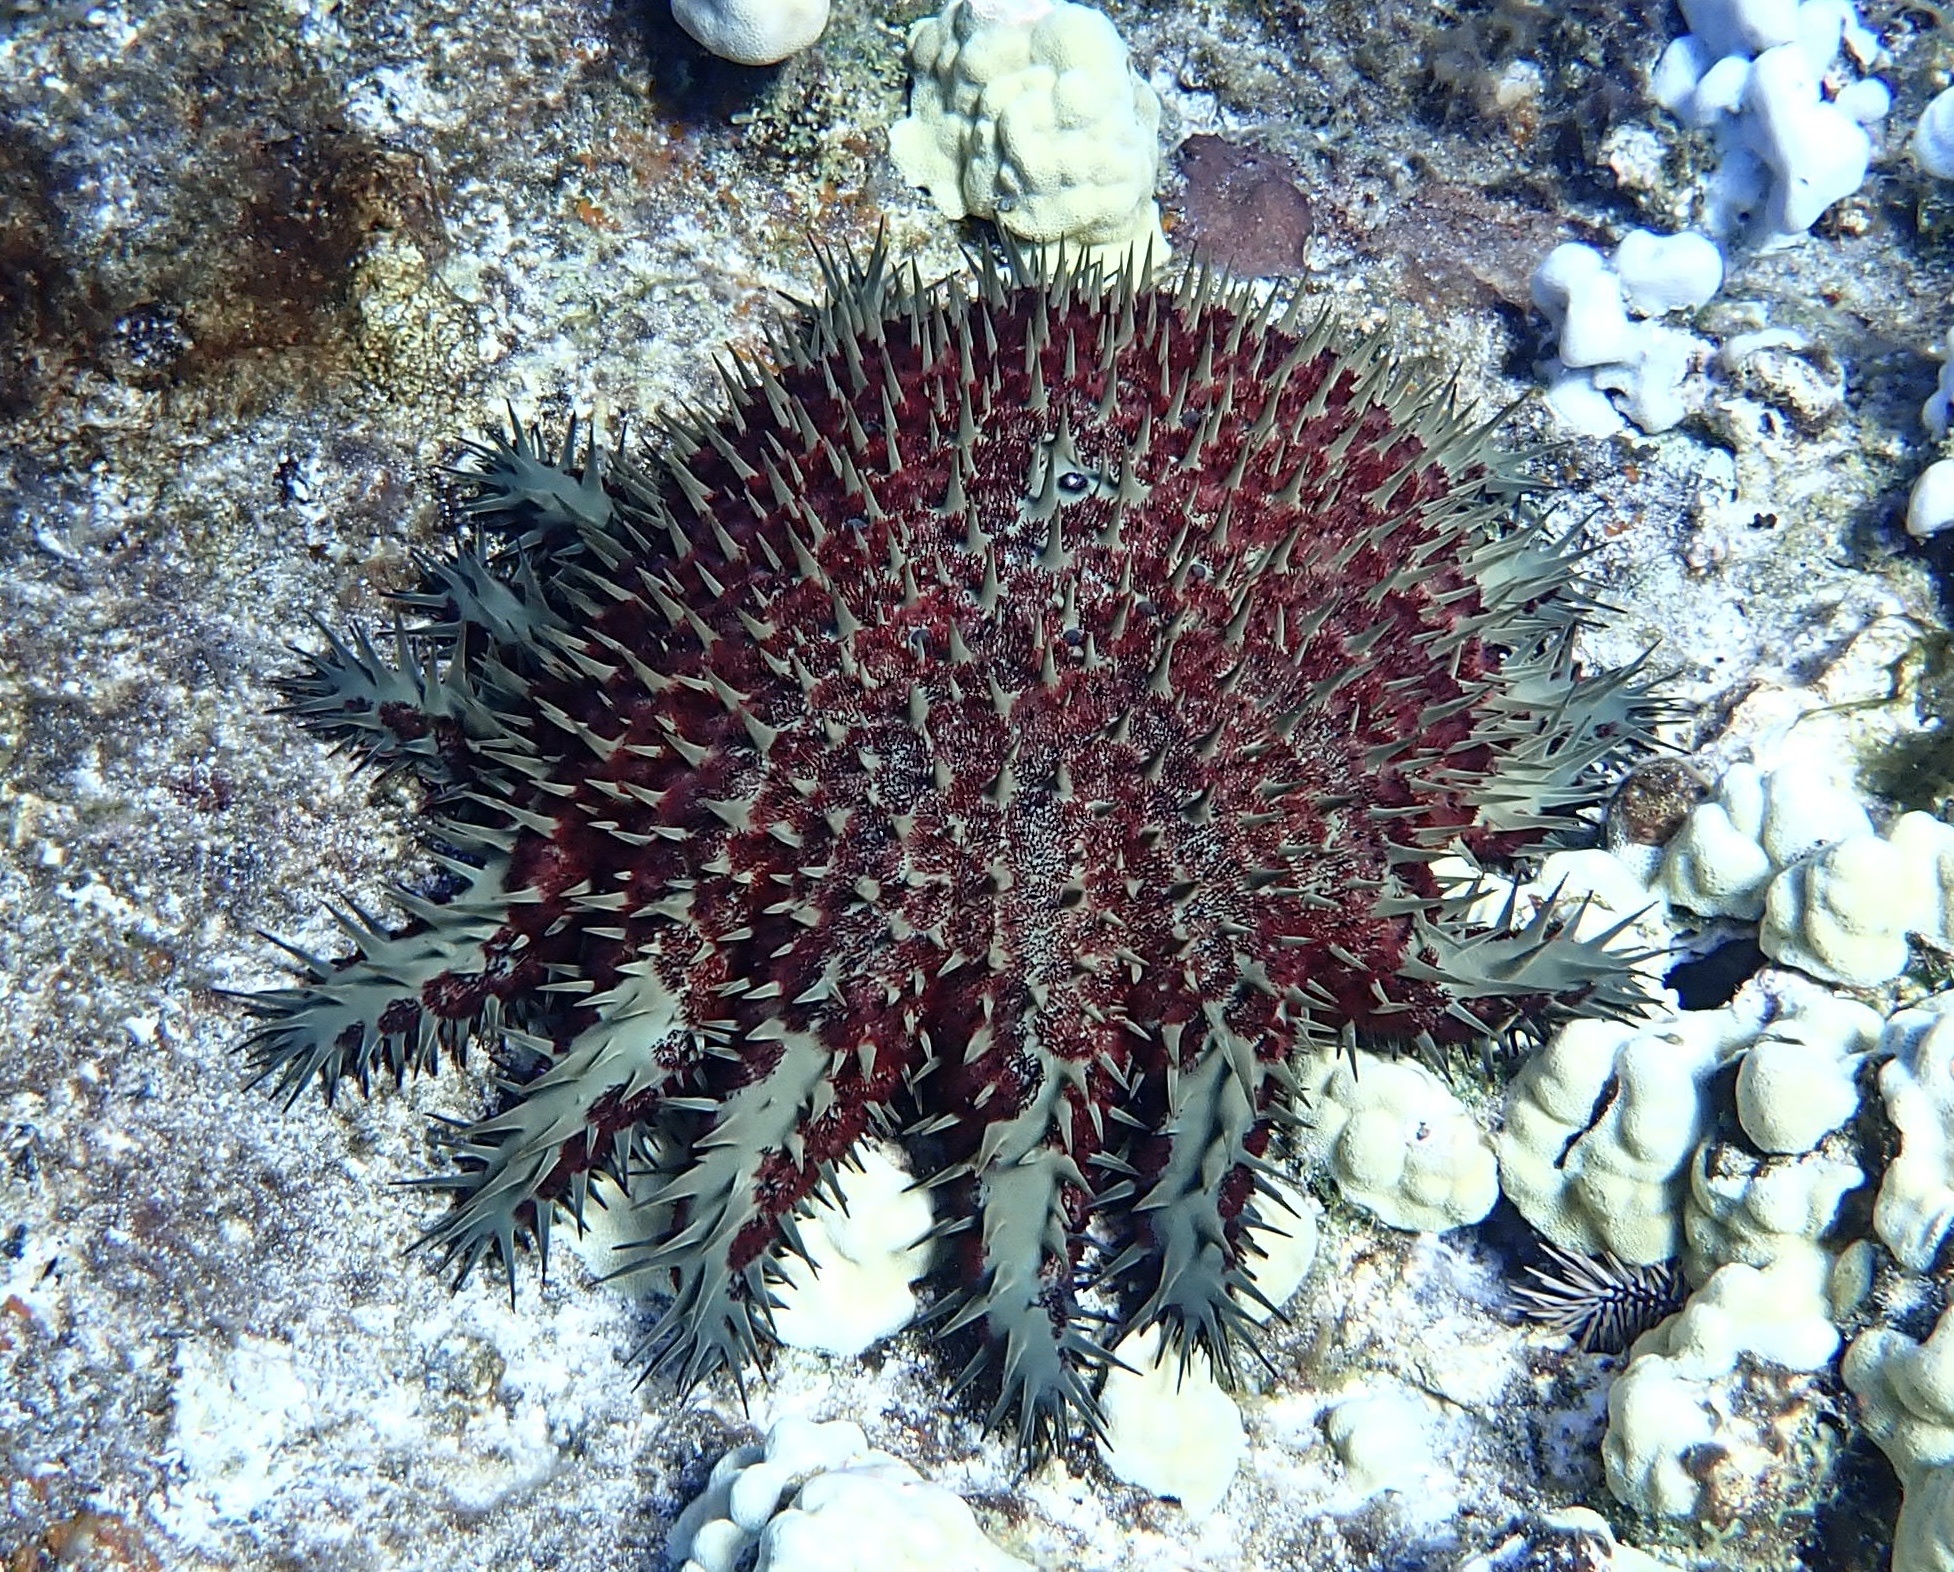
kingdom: Animalia
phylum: Echinodermata
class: Asteroidea
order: Valvatida
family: Acanthasteridae
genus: Acanthaster
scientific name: Acanthaster planci
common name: Crown-of-thorns
